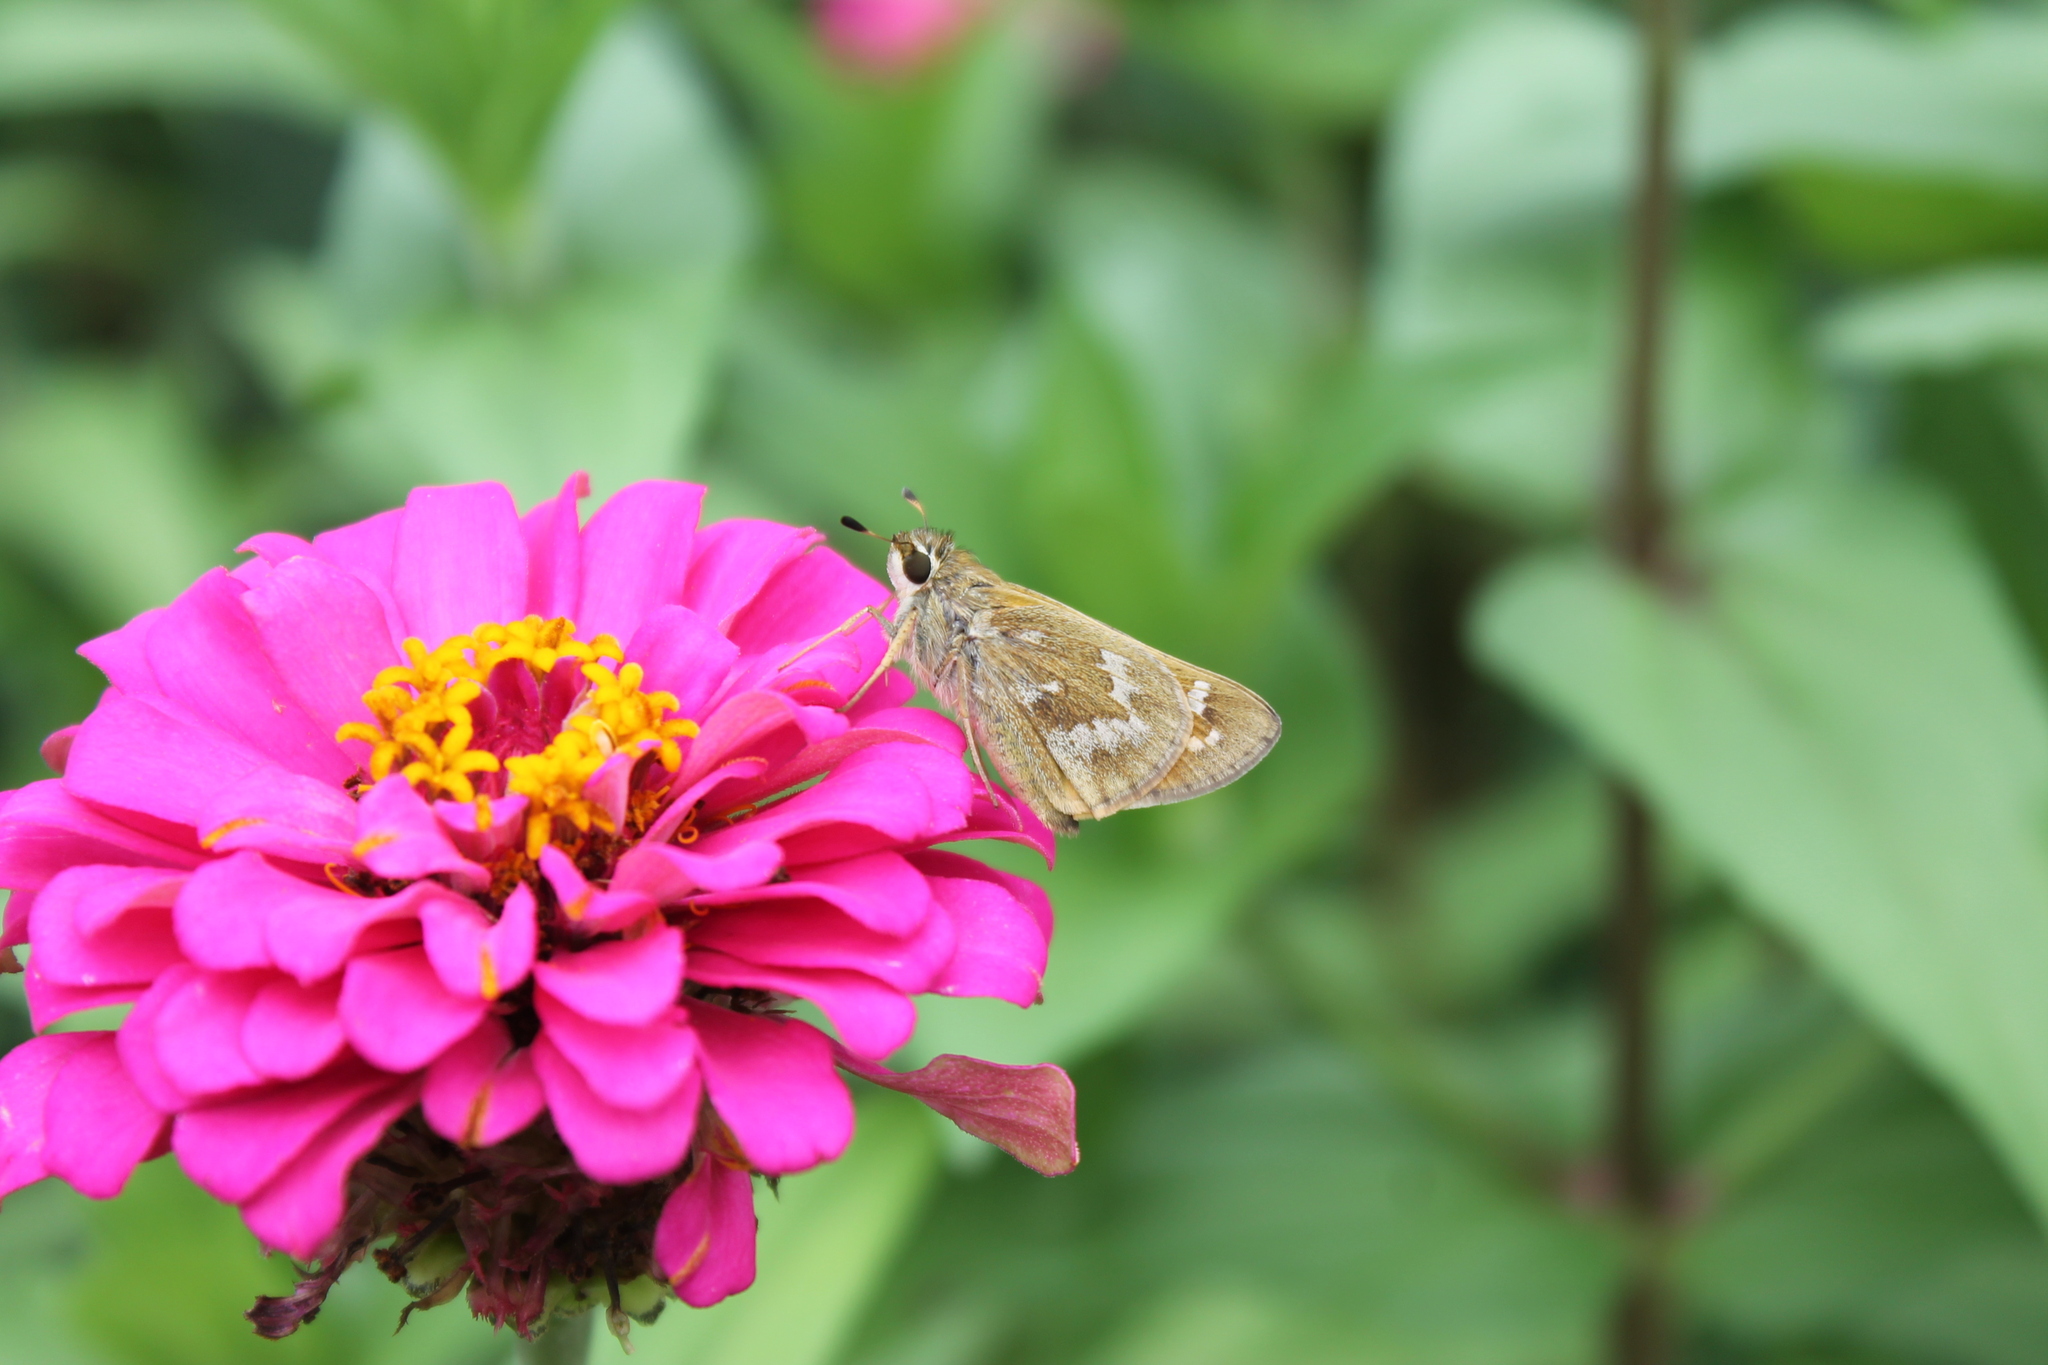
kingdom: Animalia
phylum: Arthropoda
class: Insecta
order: Lepidoptera
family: Hesperiidae
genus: Atalopedes
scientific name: Atalopedes
